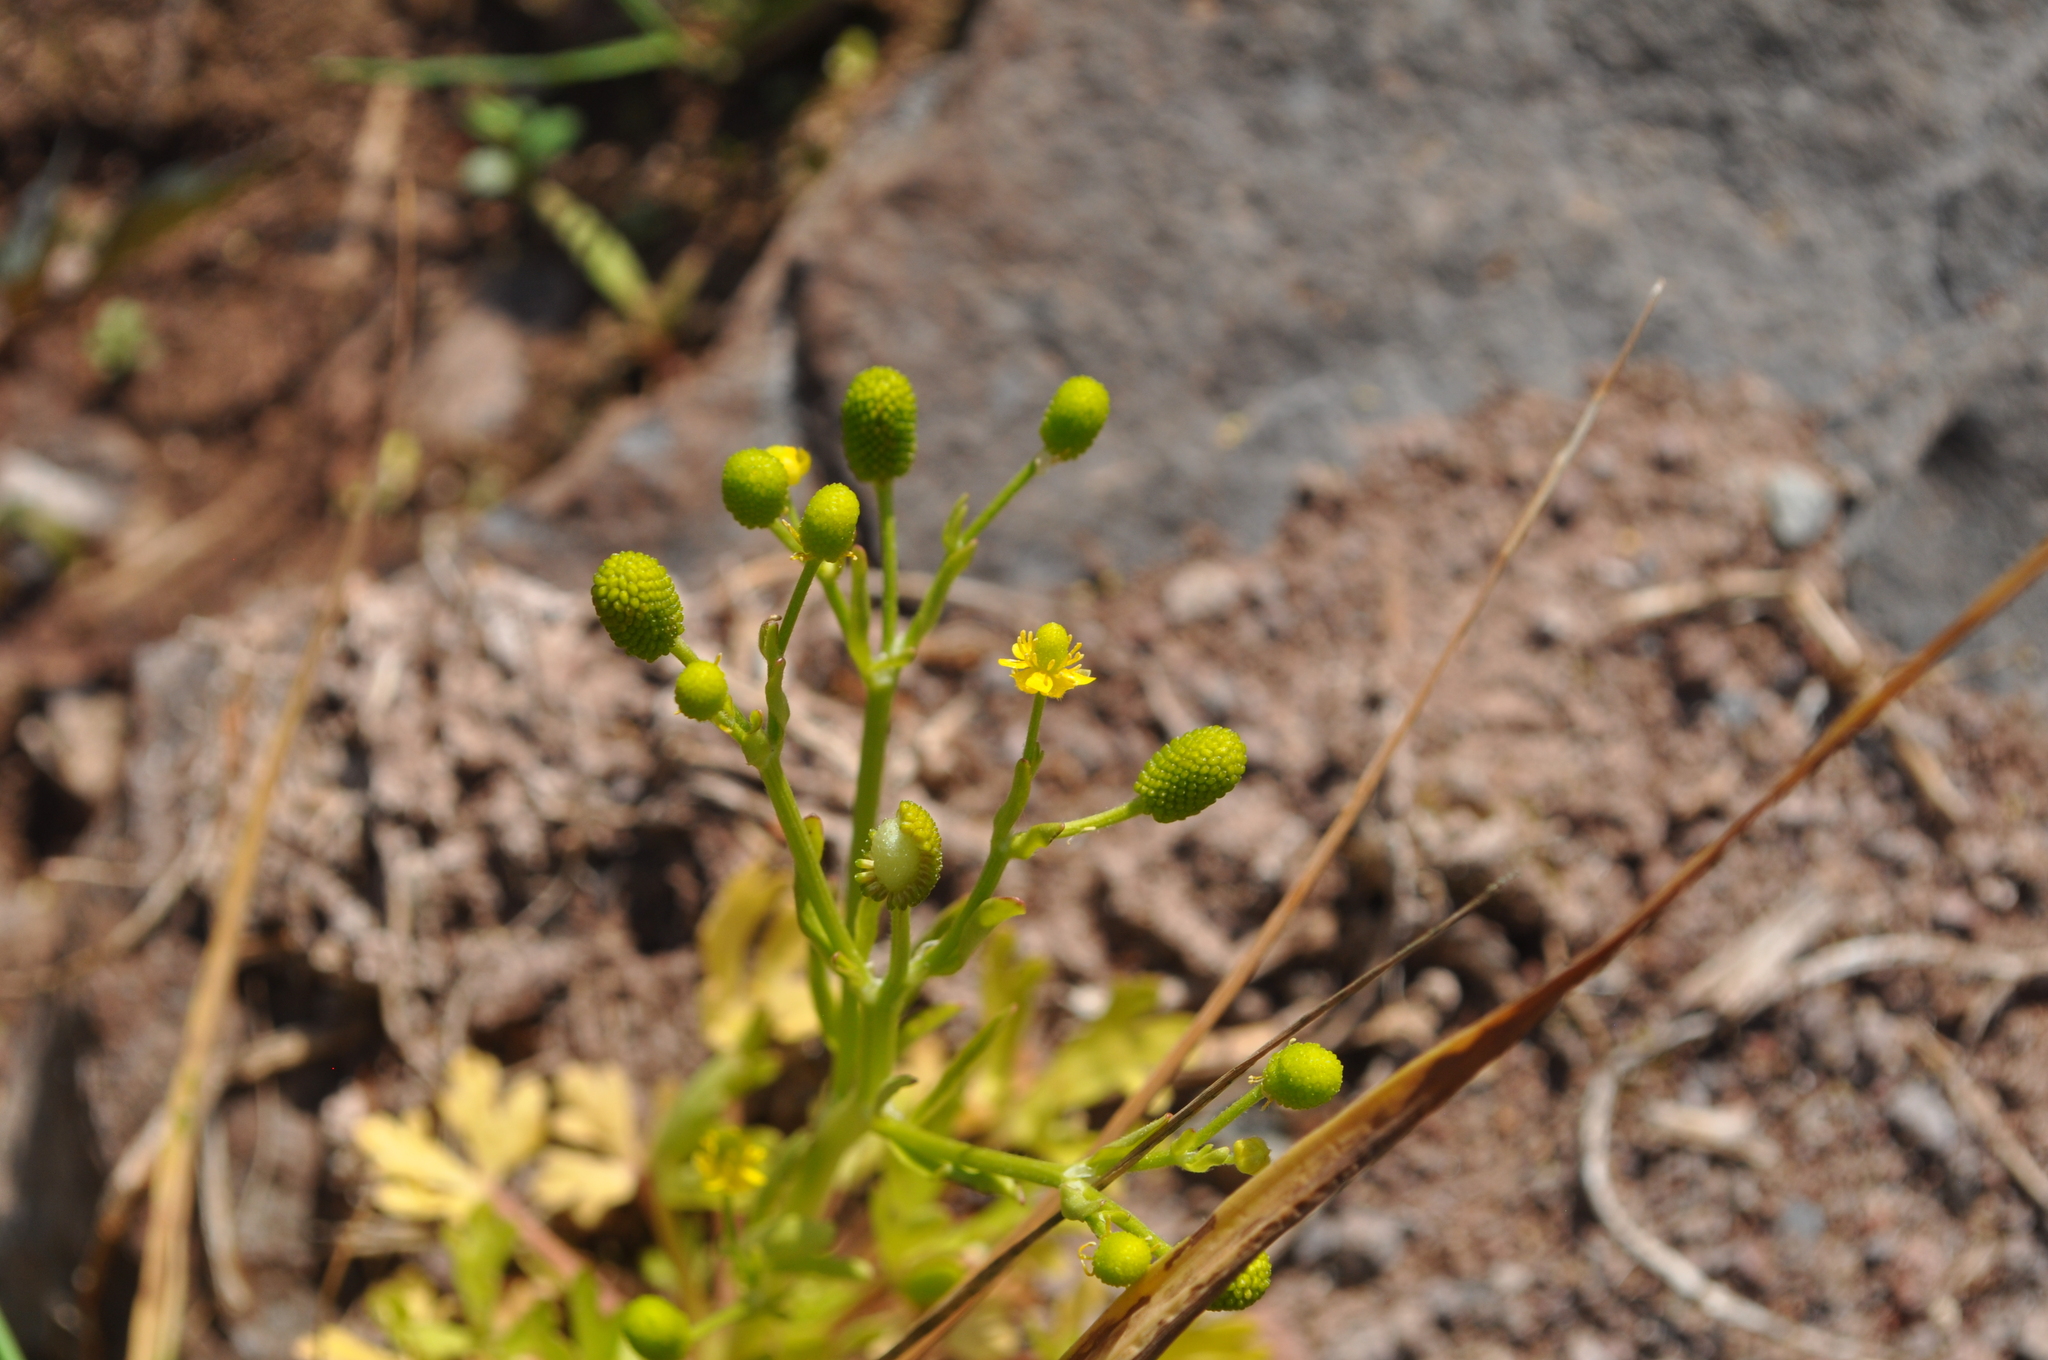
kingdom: Plantae
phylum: Tracheophyta
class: Magnoliopsida
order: Ranunculales
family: Ranunculaceae
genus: Ranunculus
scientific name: Ranunculus sceleratus
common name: Celery-leaved buttercup
